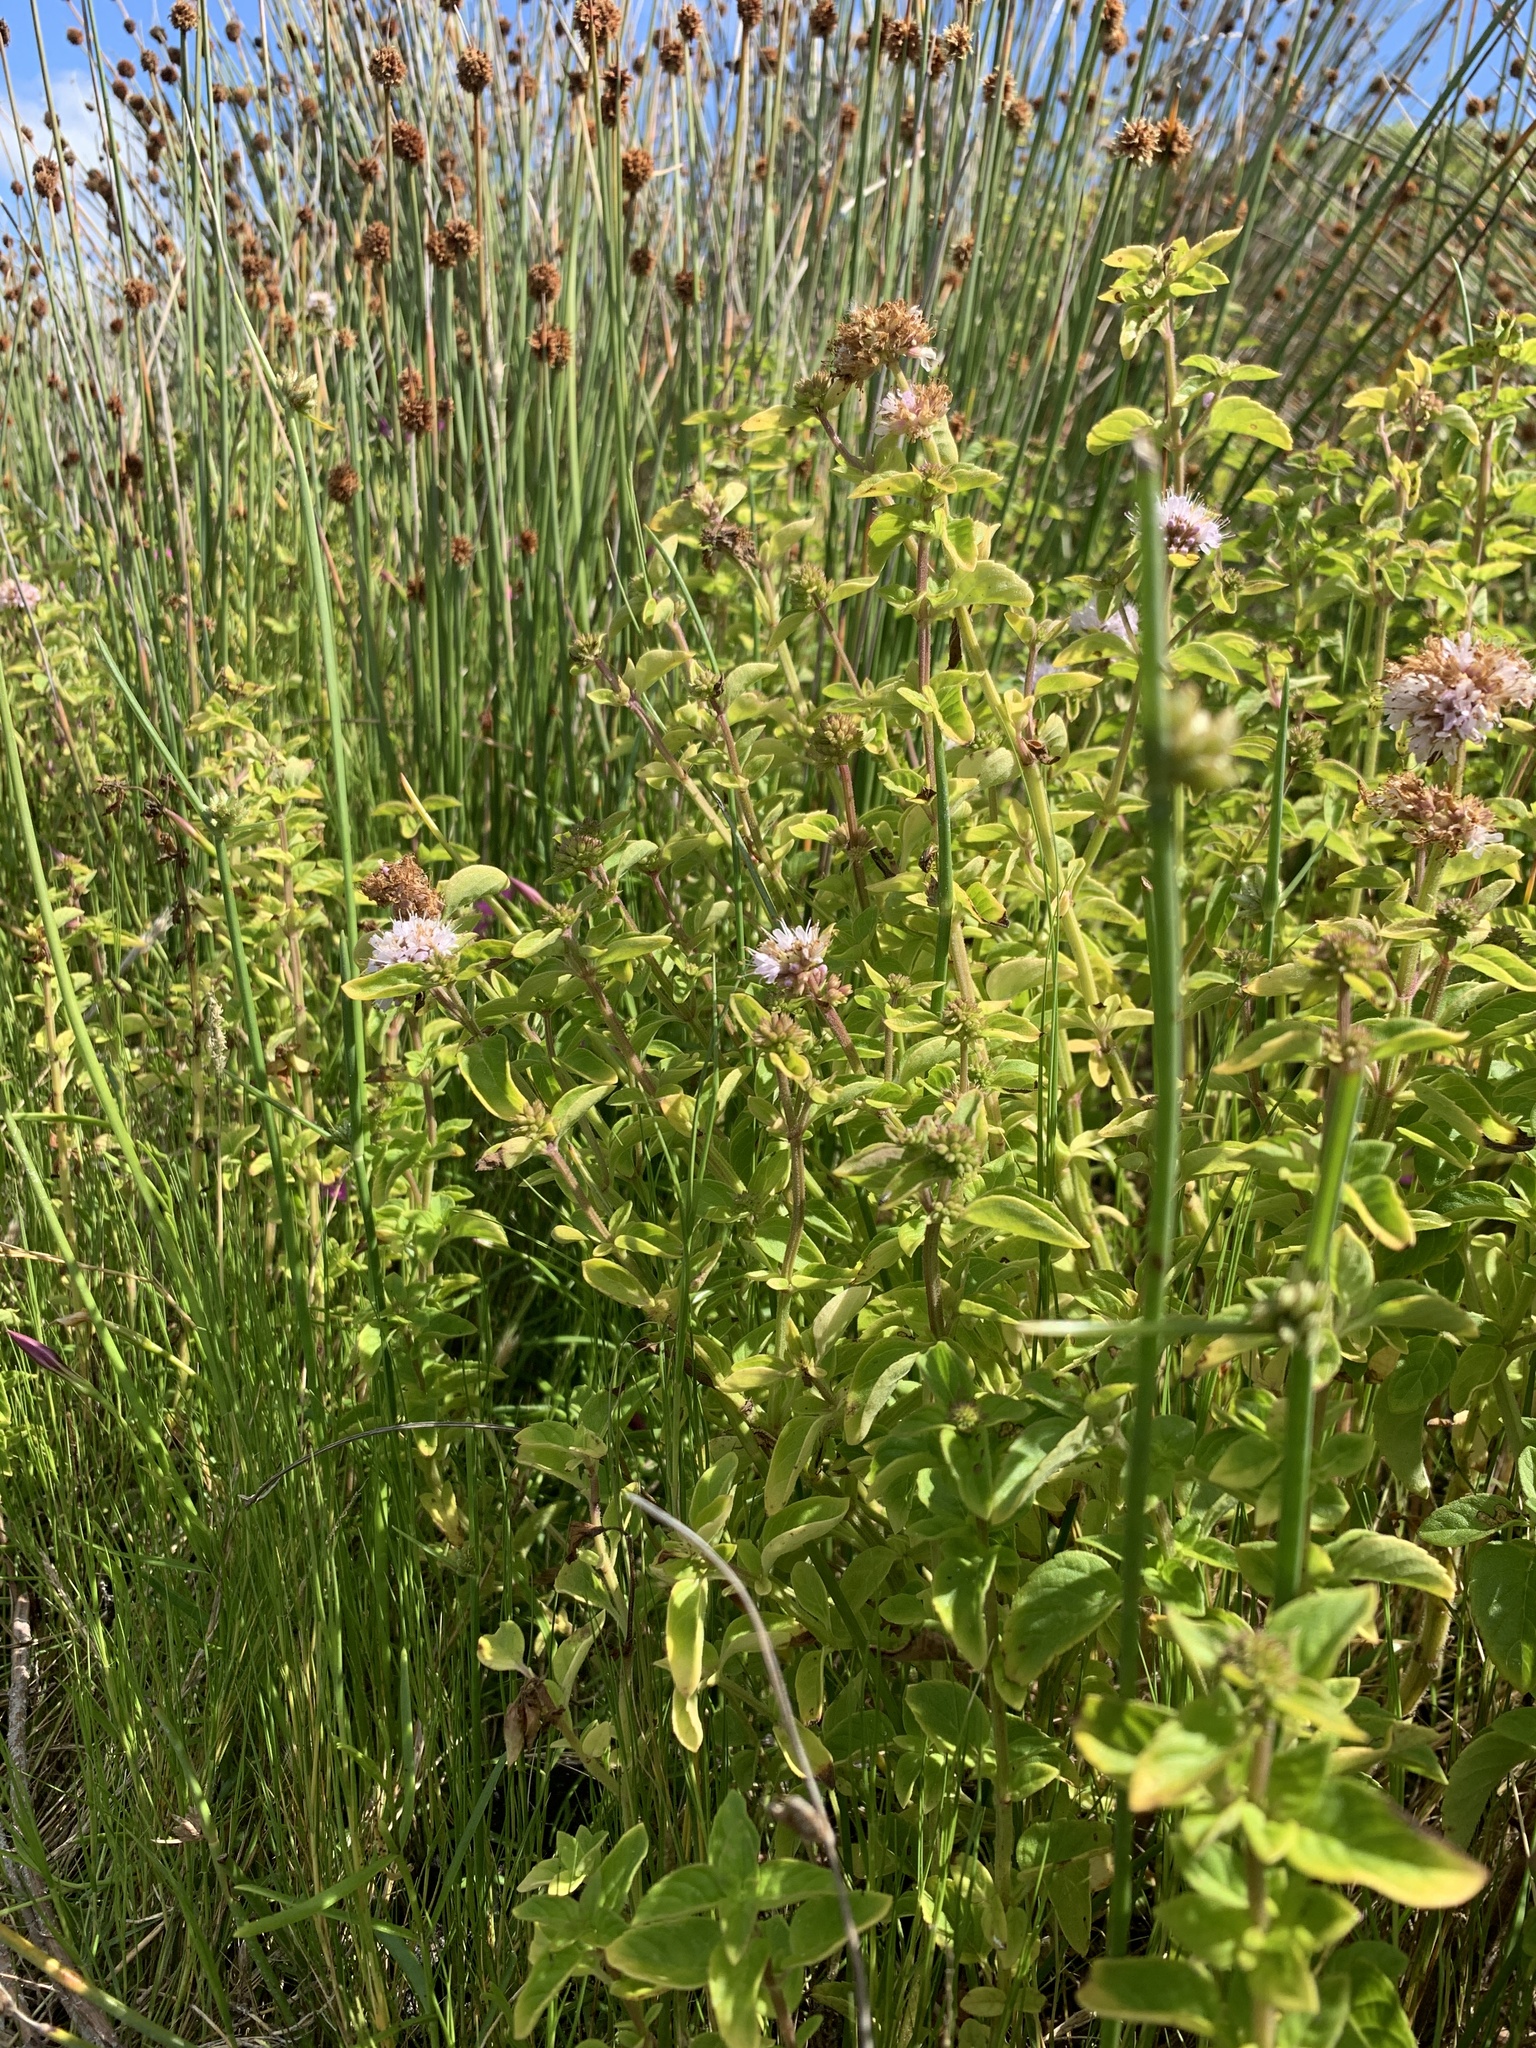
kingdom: Plantae
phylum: Tracheophyta
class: Magnoliopsida
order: Lamiales
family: Lamiaceae
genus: Mentha
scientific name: Mentha aquatica
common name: Water mint
